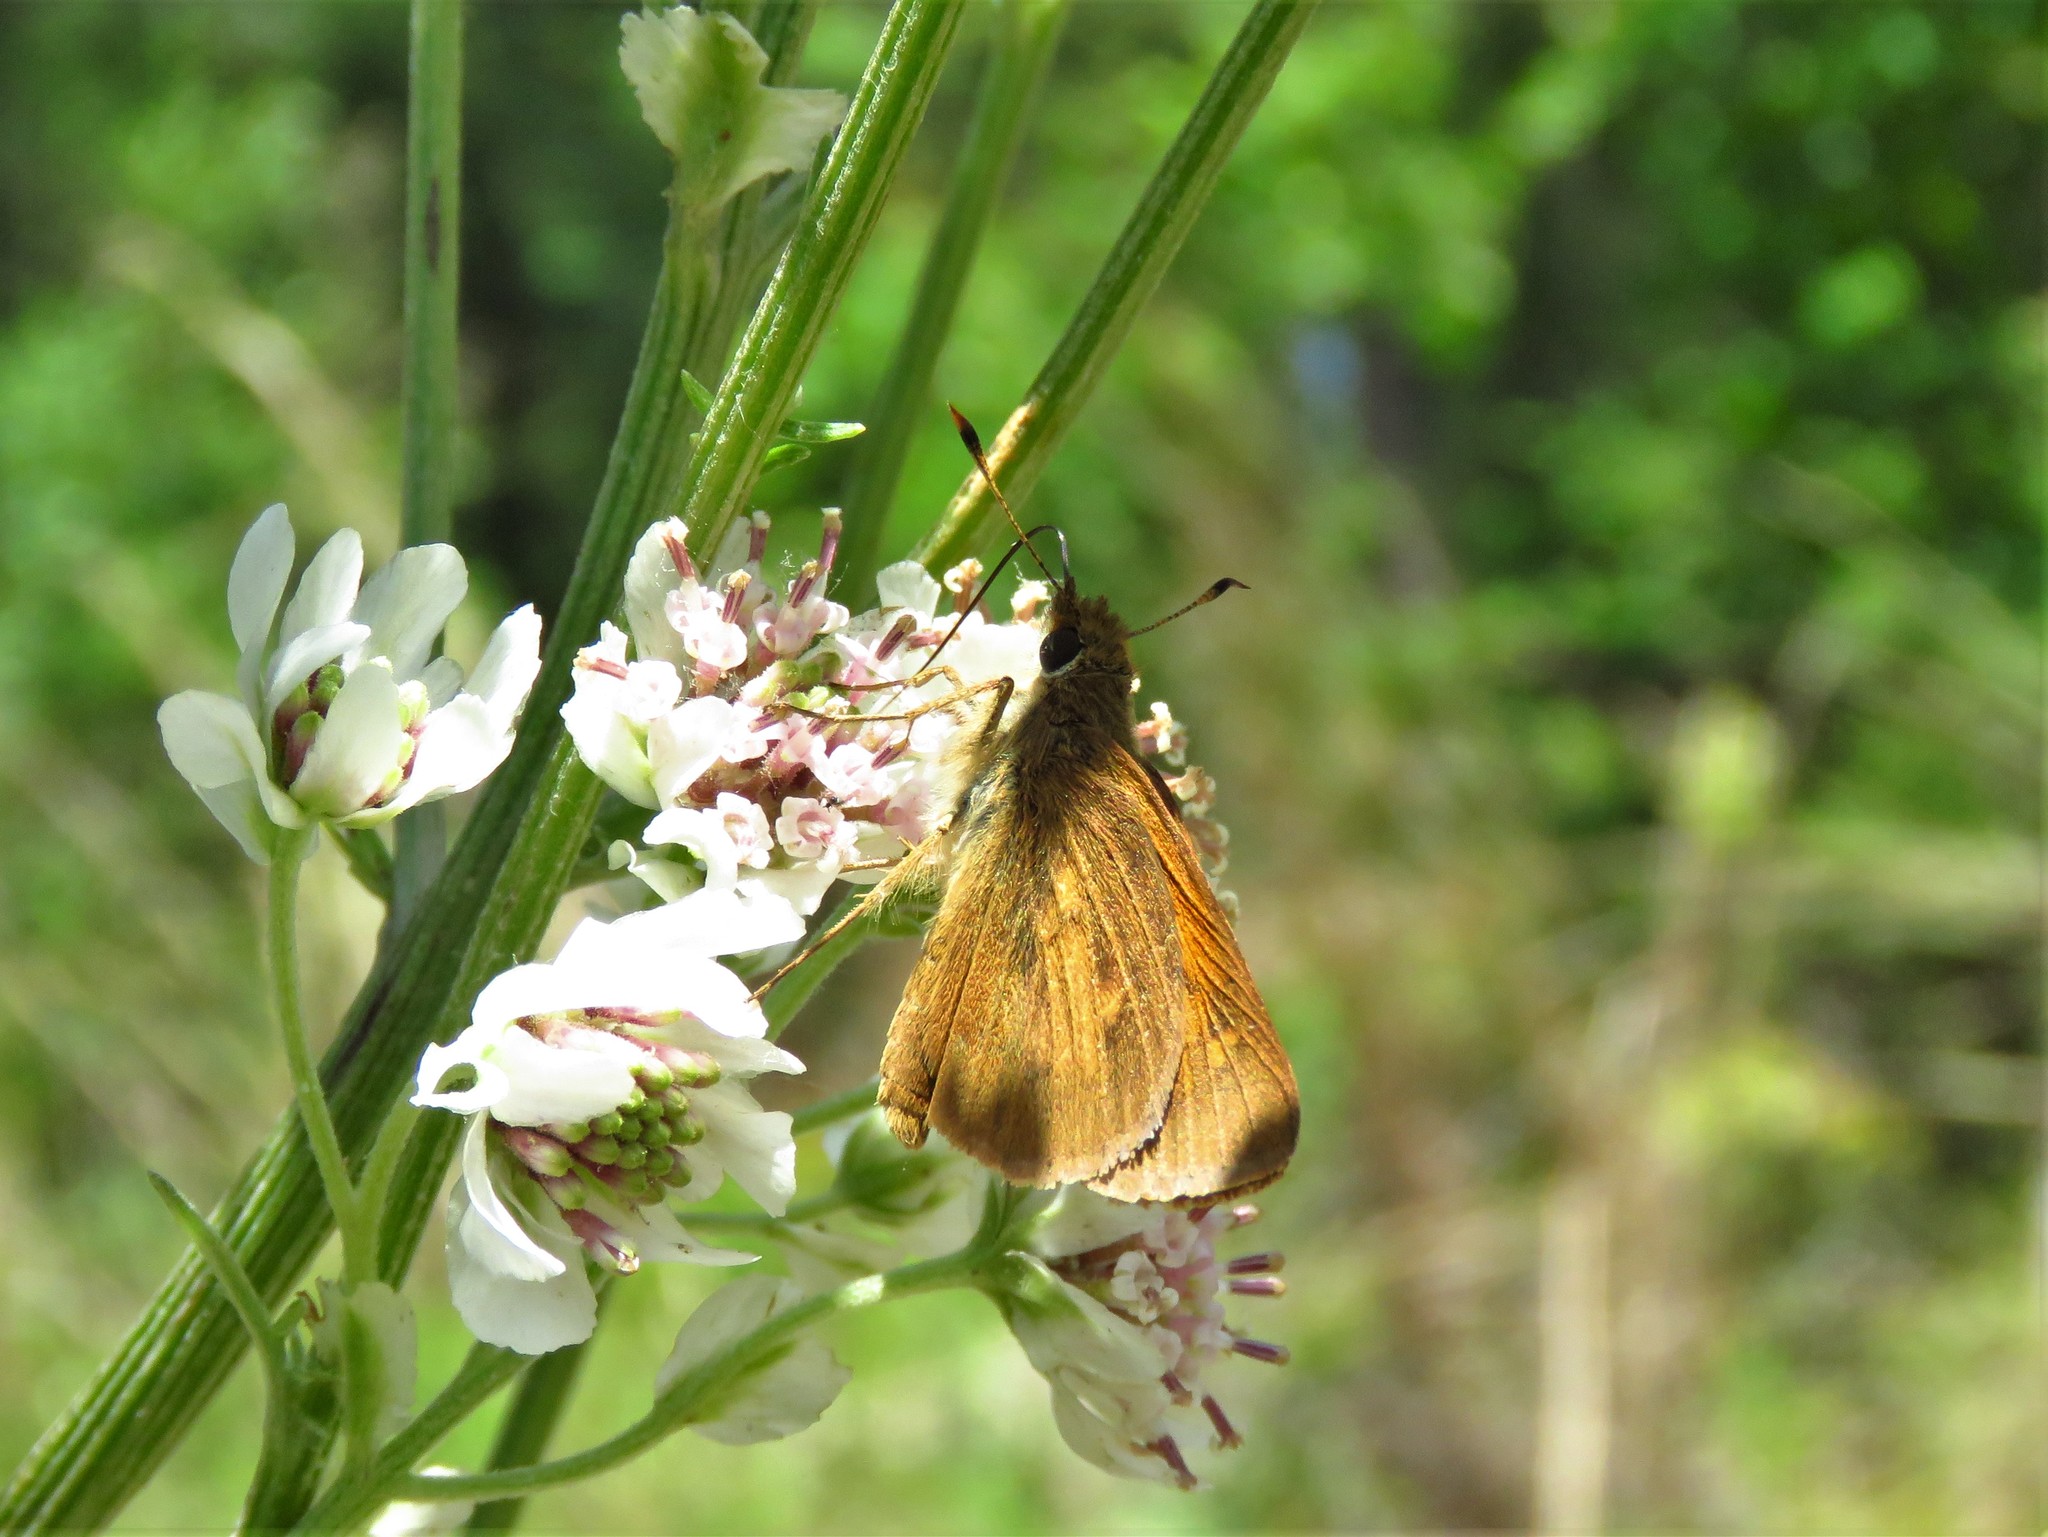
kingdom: Animalia
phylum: Arthropoda
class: Insecta
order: Lepidoptera
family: Hesperiidae
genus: Poanes
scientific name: Poanes viator
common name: Broad-winged skipper
